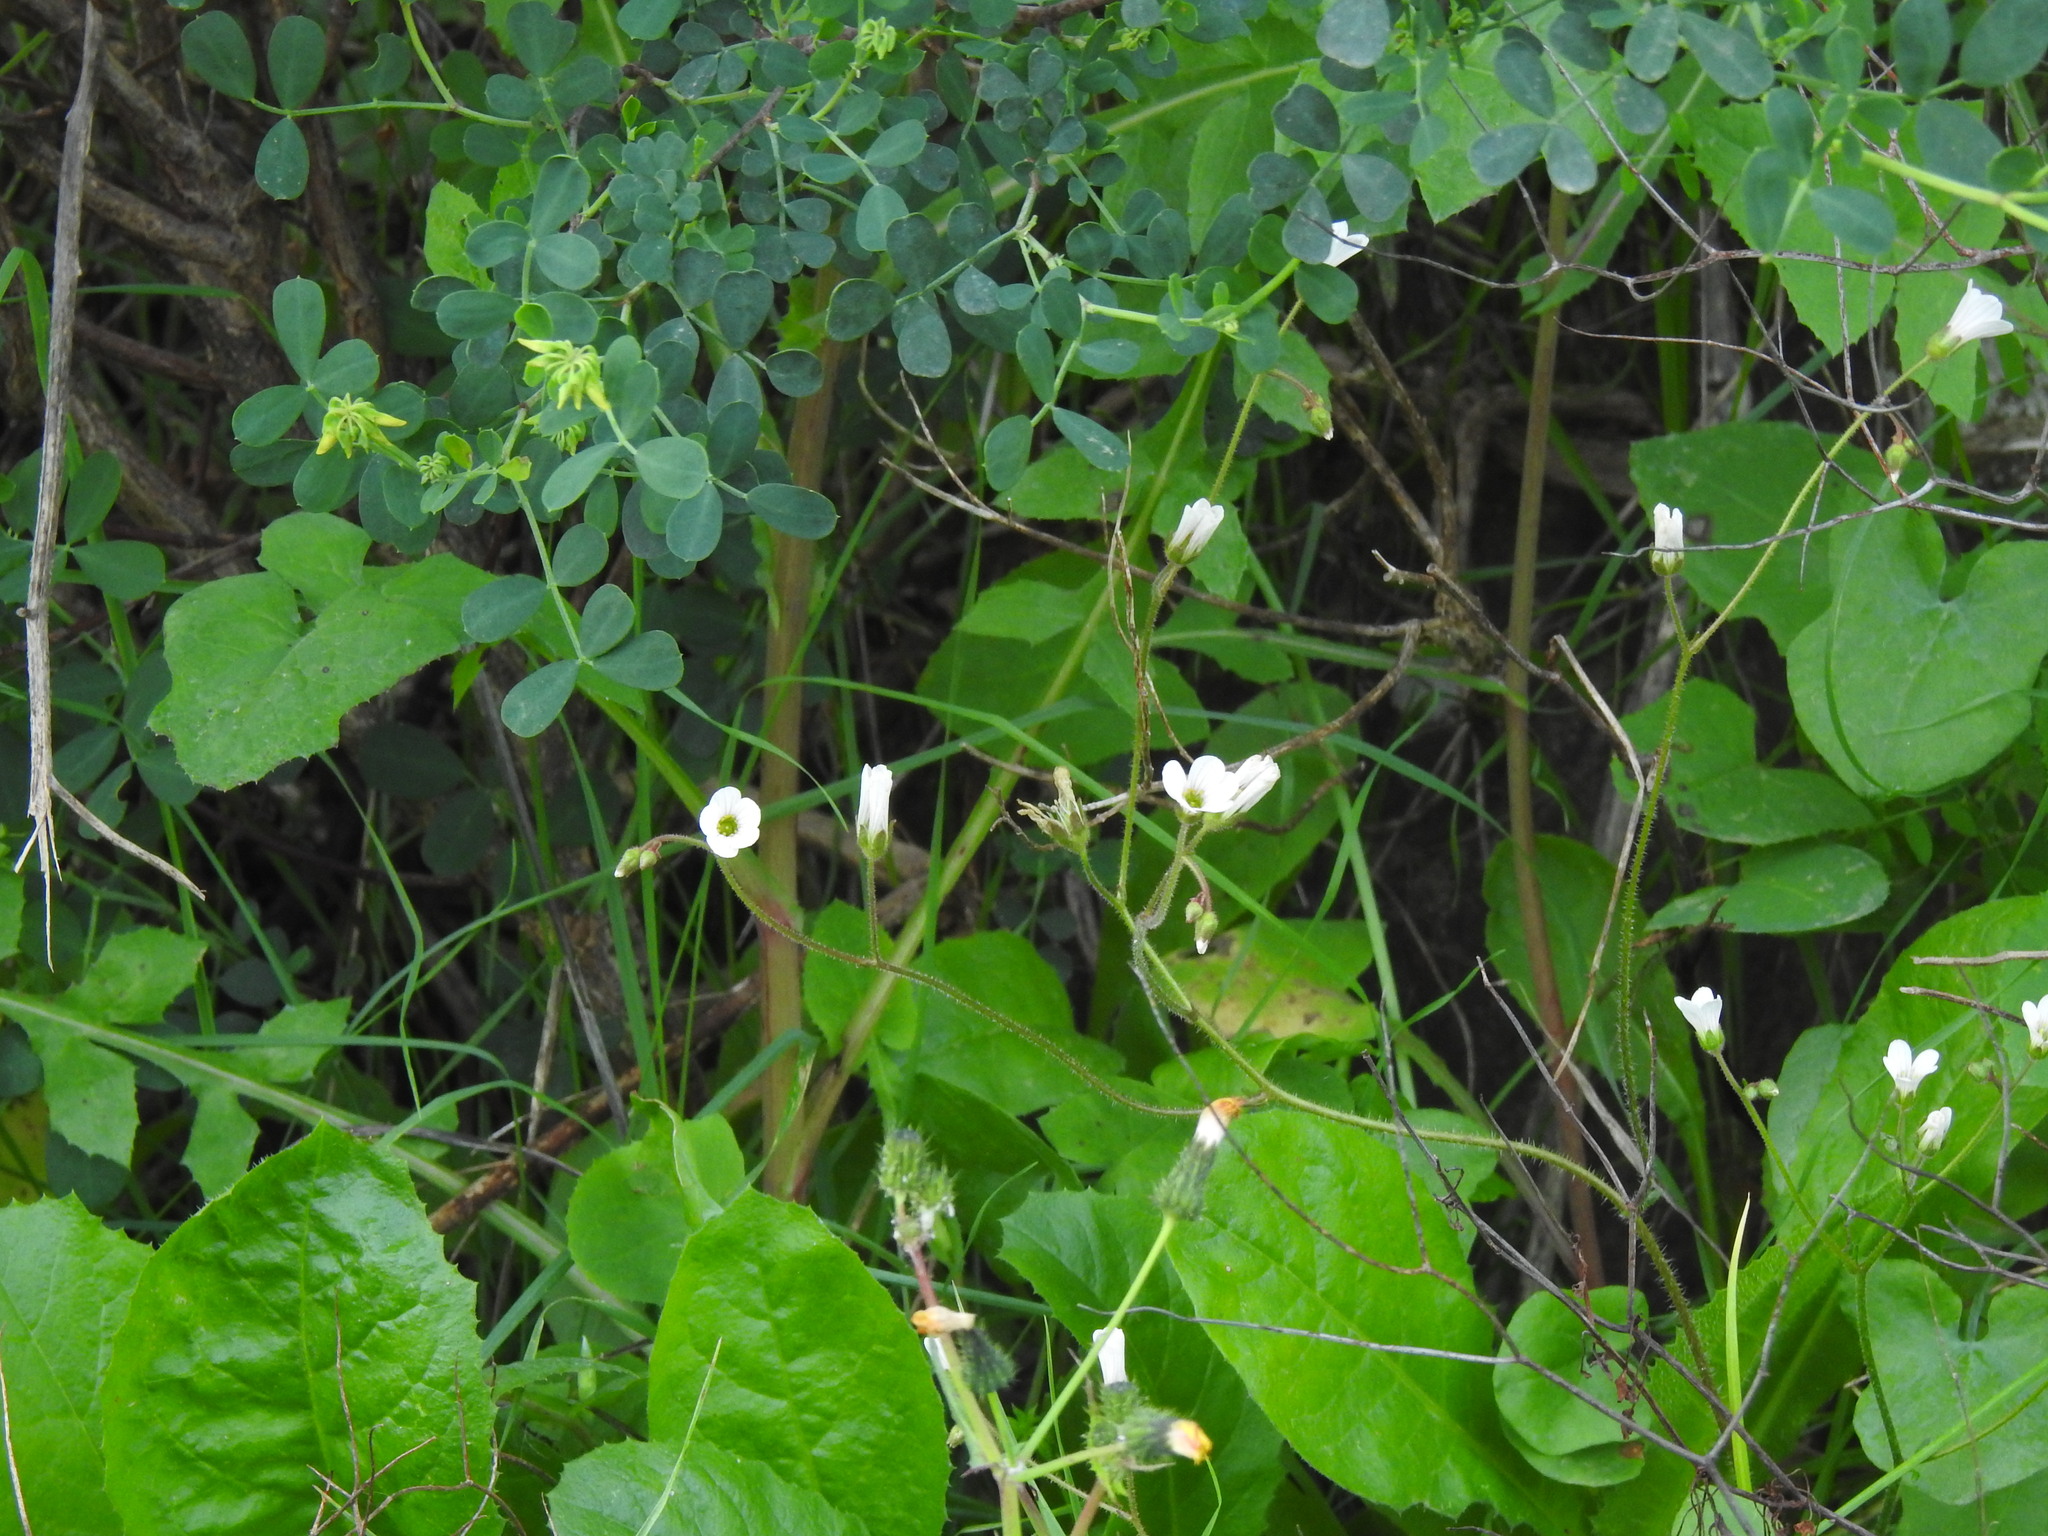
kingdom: Plantae
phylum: Tracheophyta
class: Magnoliopsida
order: Saxifragales
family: Saxifragaceae
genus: Saxifraga
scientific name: Saxifraga granulata
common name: Meadow saxifrage
